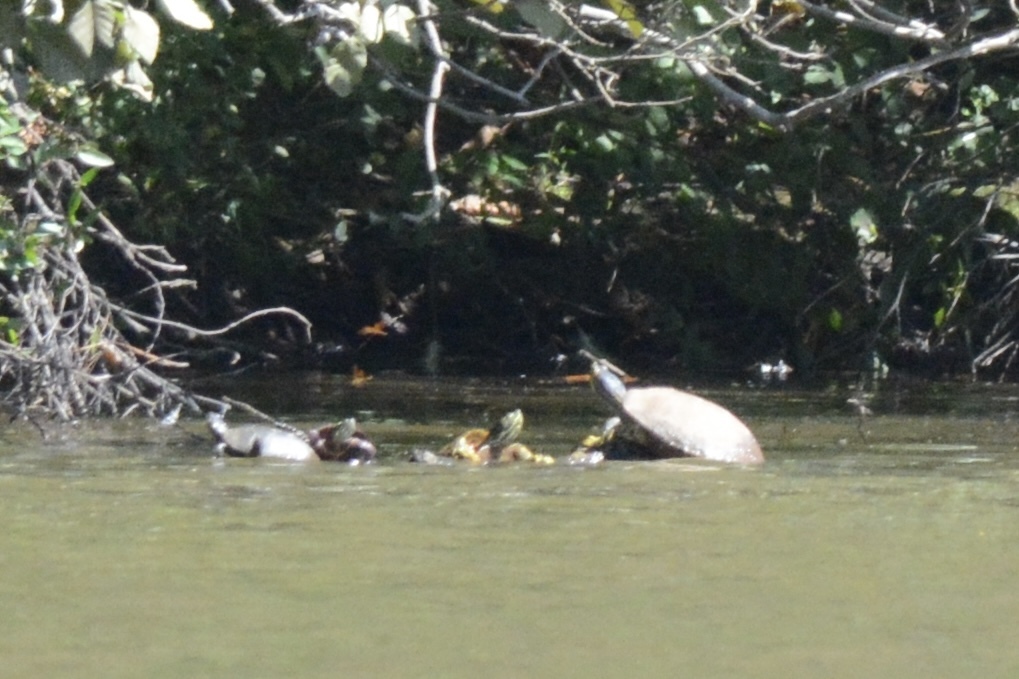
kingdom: Animalia
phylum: Chordata
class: Testudines
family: Emydidae
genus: Chrysemys
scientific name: Chrysemys picta
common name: Painted turtle
